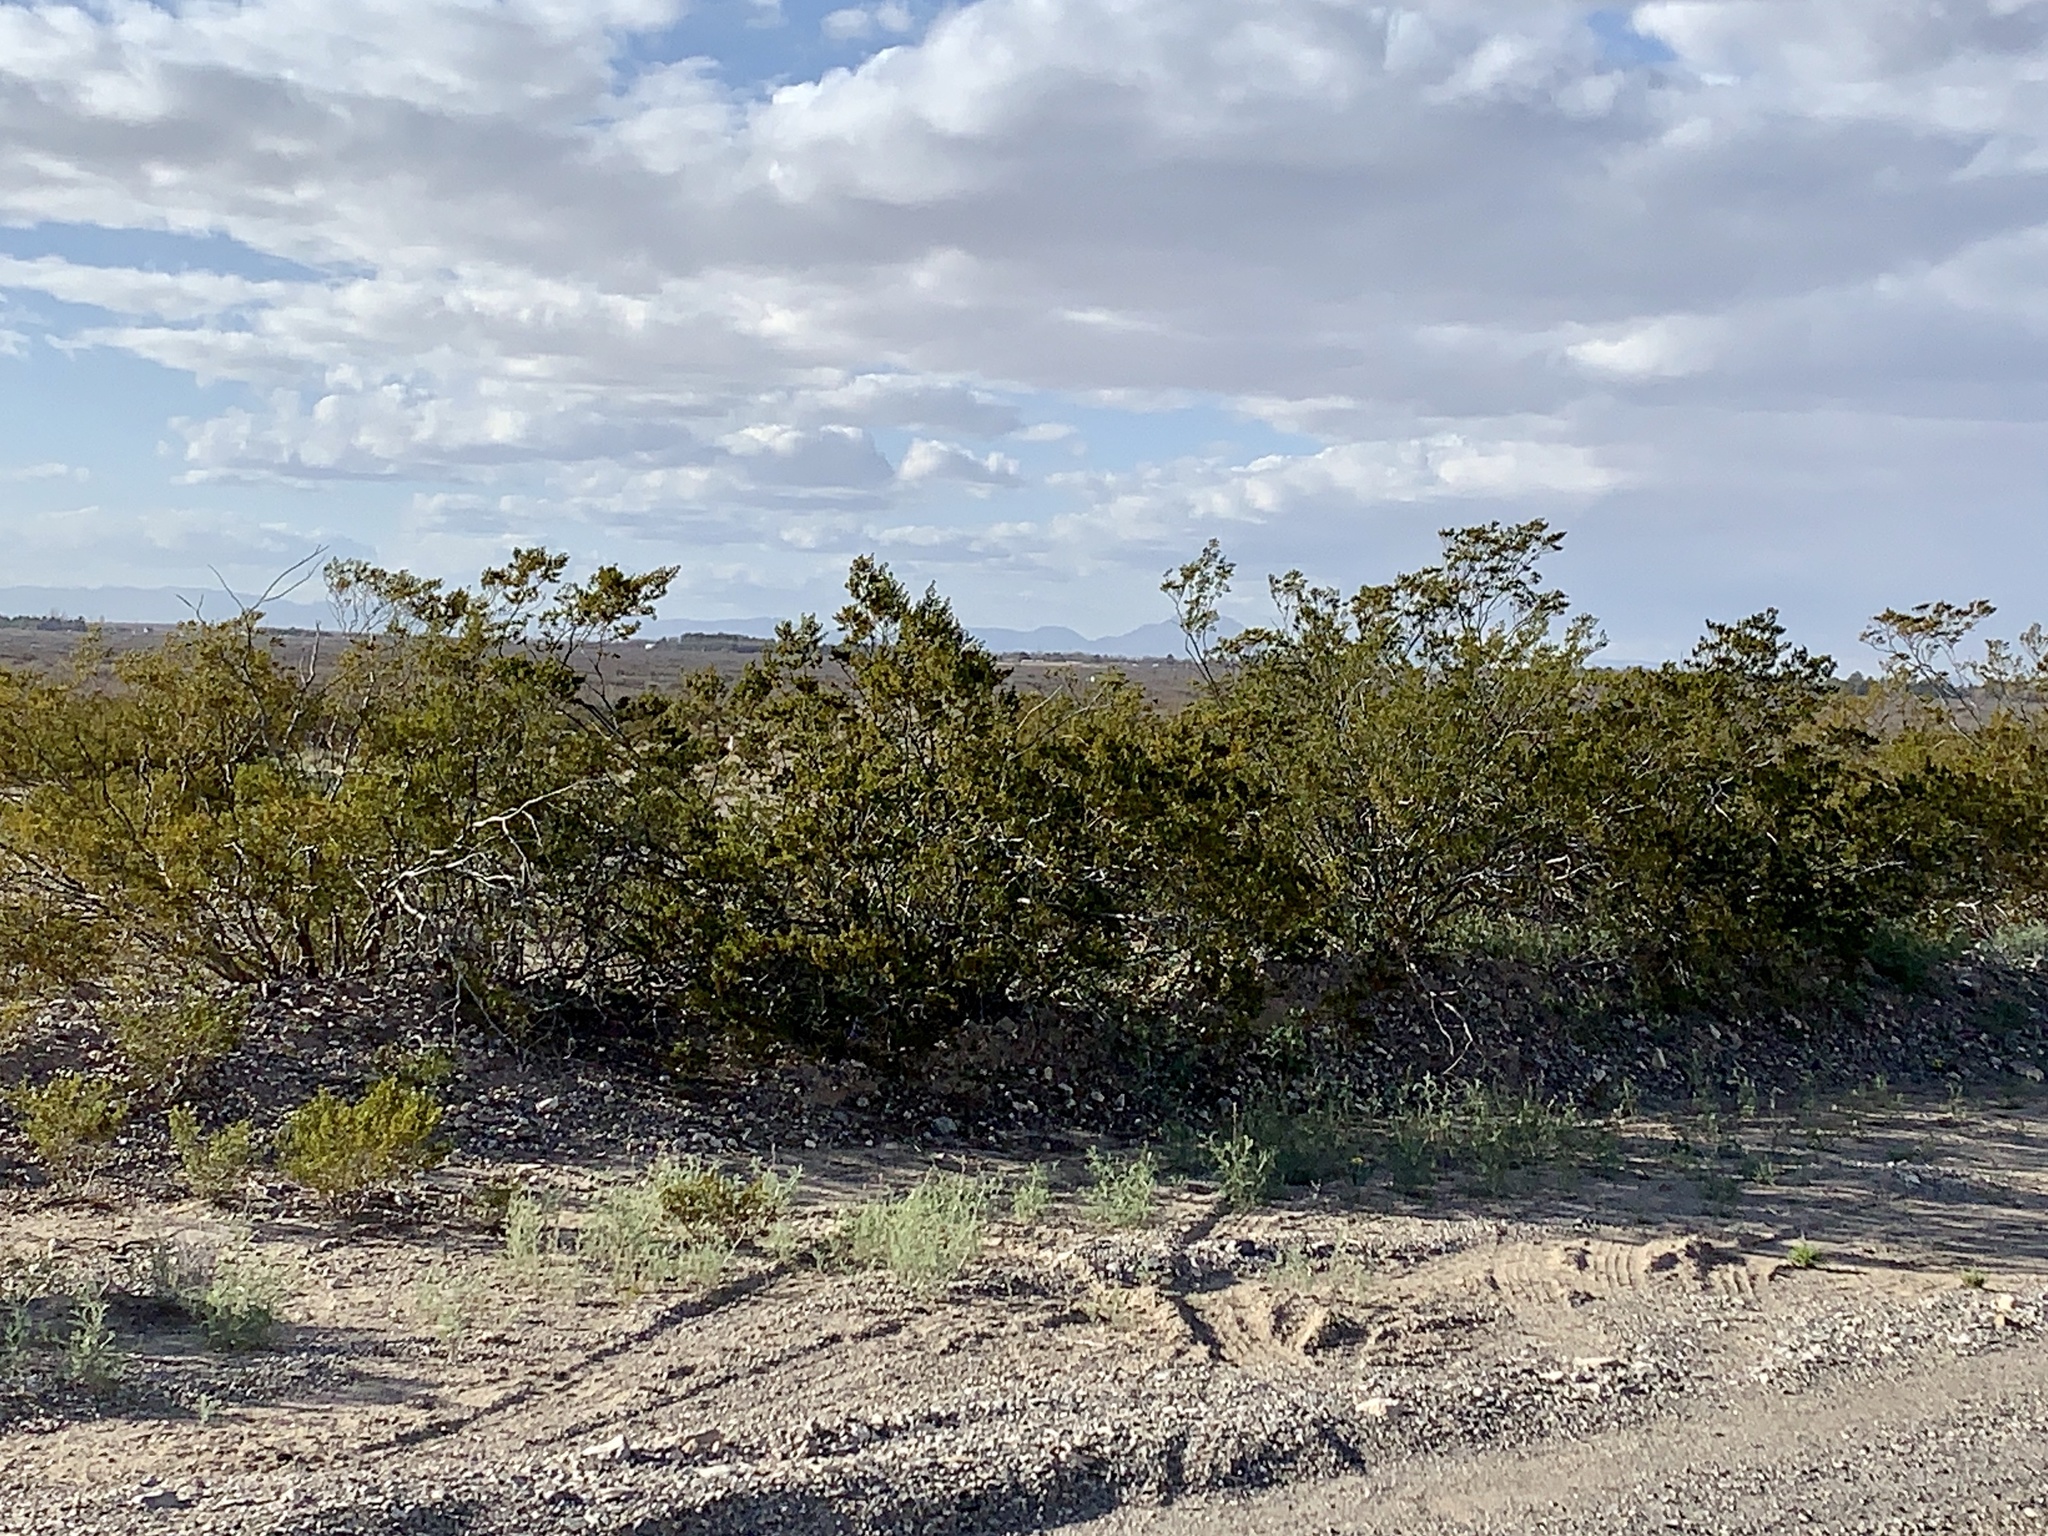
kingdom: Plantae
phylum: Tracheophyta
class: Magnoliopsida
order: Zygophyllales
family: Zygophyllaceae
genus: Larrea
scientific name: Larrea tridentata
